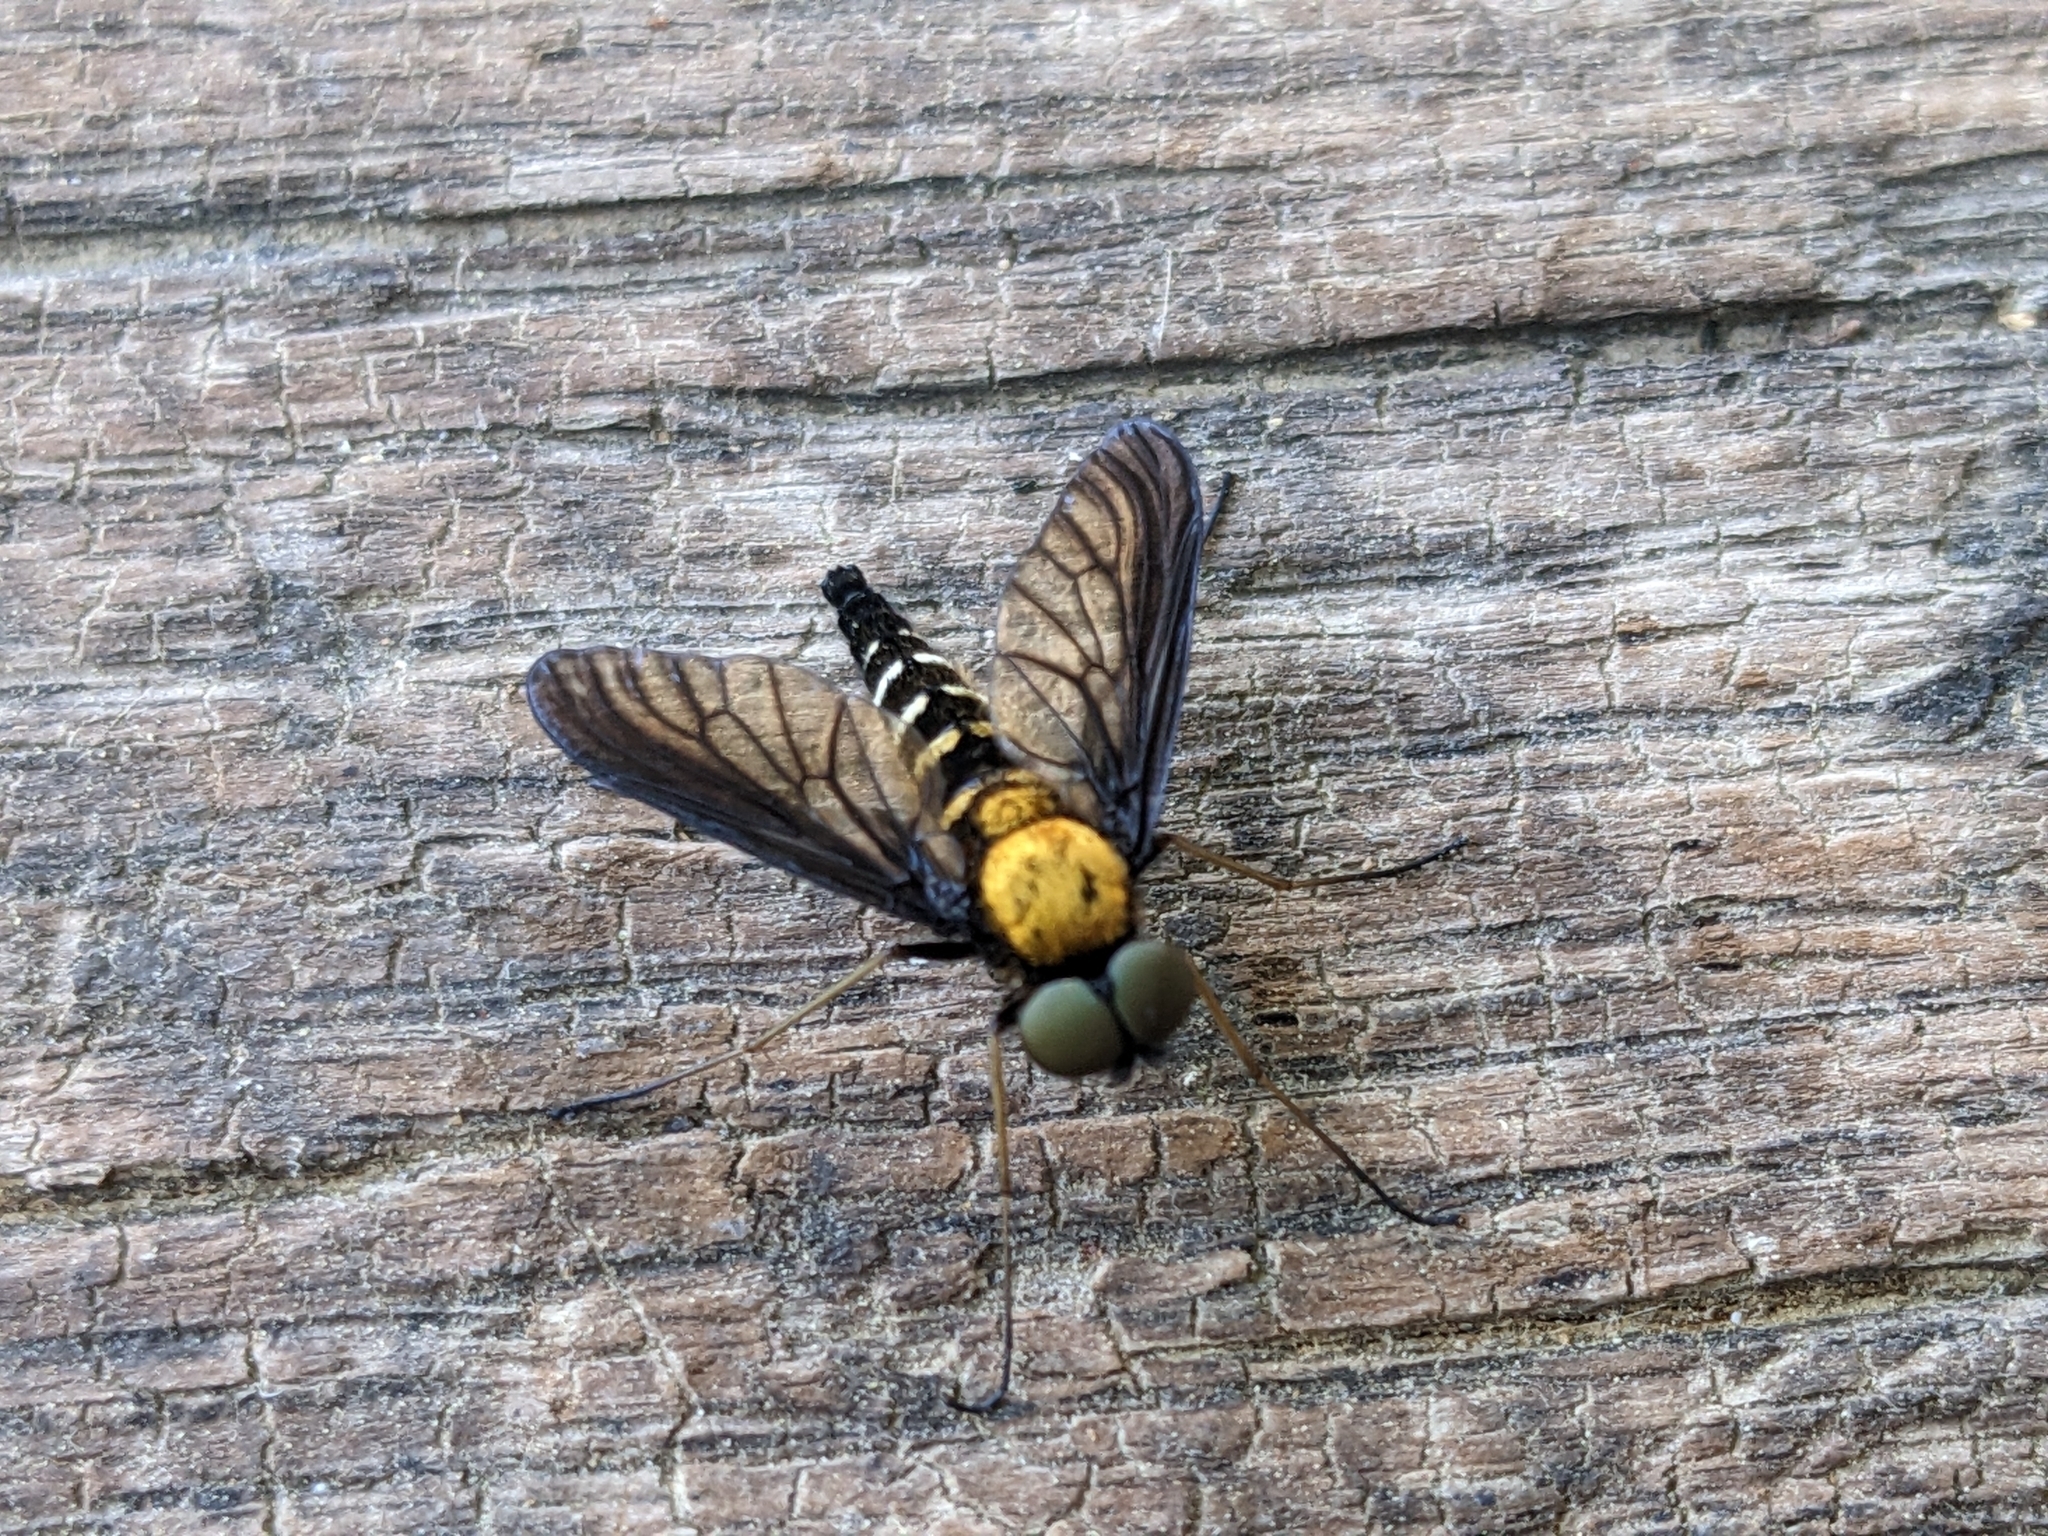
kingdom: Animalia
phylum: Arthropoda
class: Insecta
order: Diptera
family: Rhagionidae
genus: Chrysopilus
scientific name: Chrysopilus thoracicus
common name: Golden-backed snipe fly
